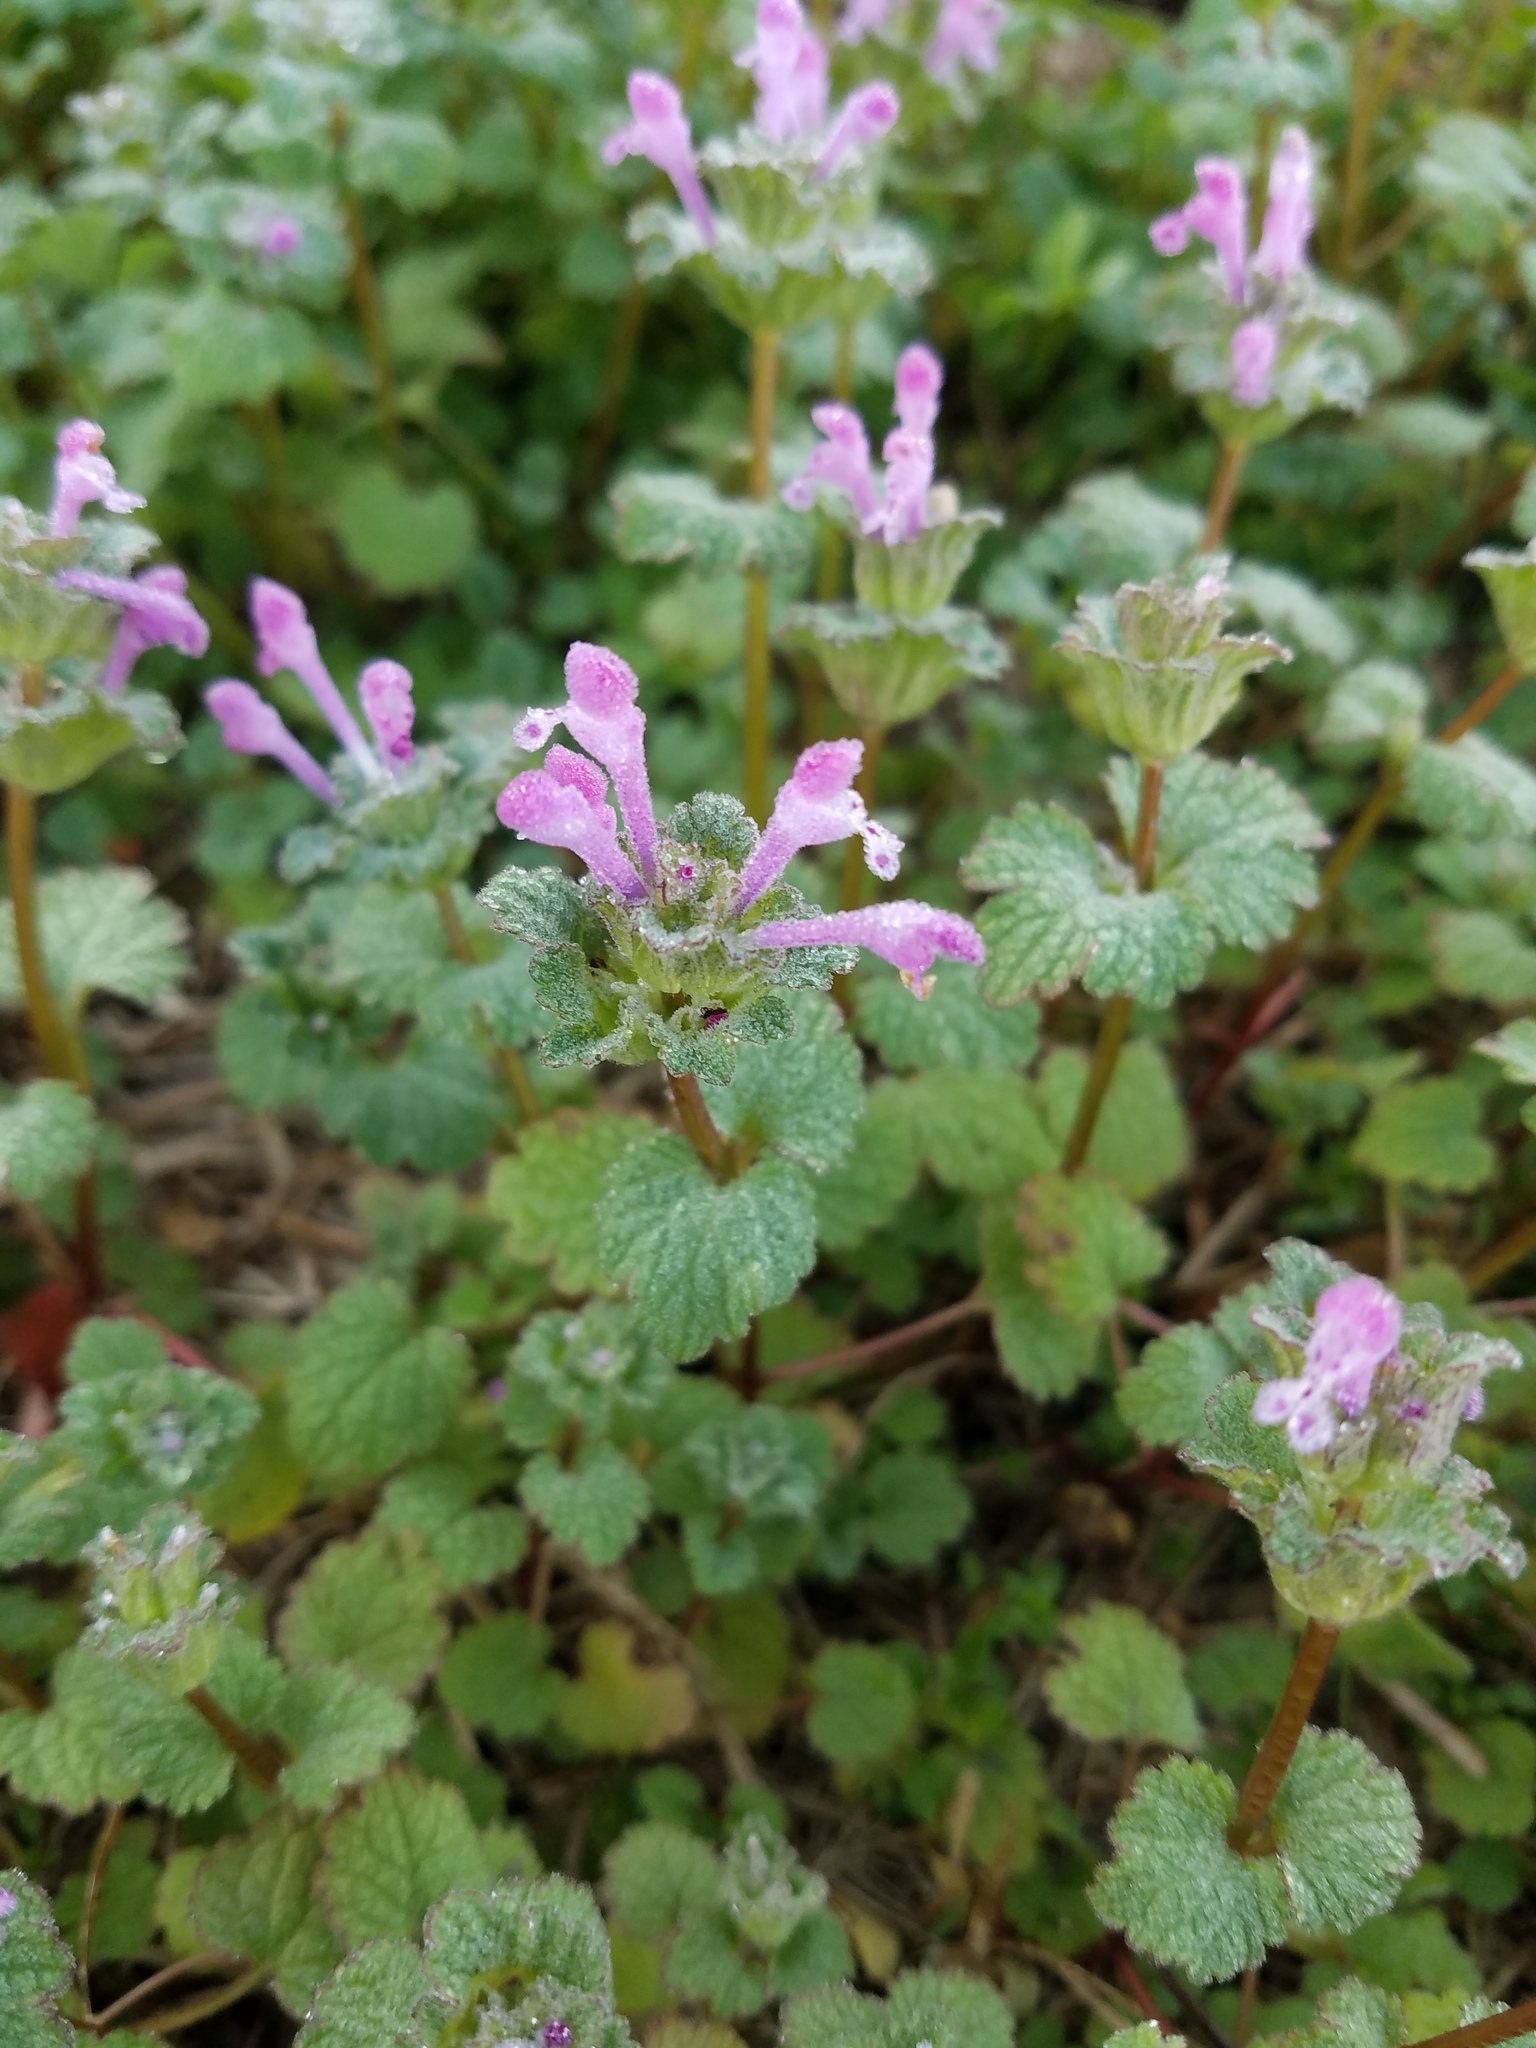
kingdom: Plantae
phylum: Tracheophyta
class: Magnoliopsida
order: Lamiales
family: Lamiaceae
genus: Lamium
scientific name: Lamium amplexicaule
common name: Henbit dead-nettle
